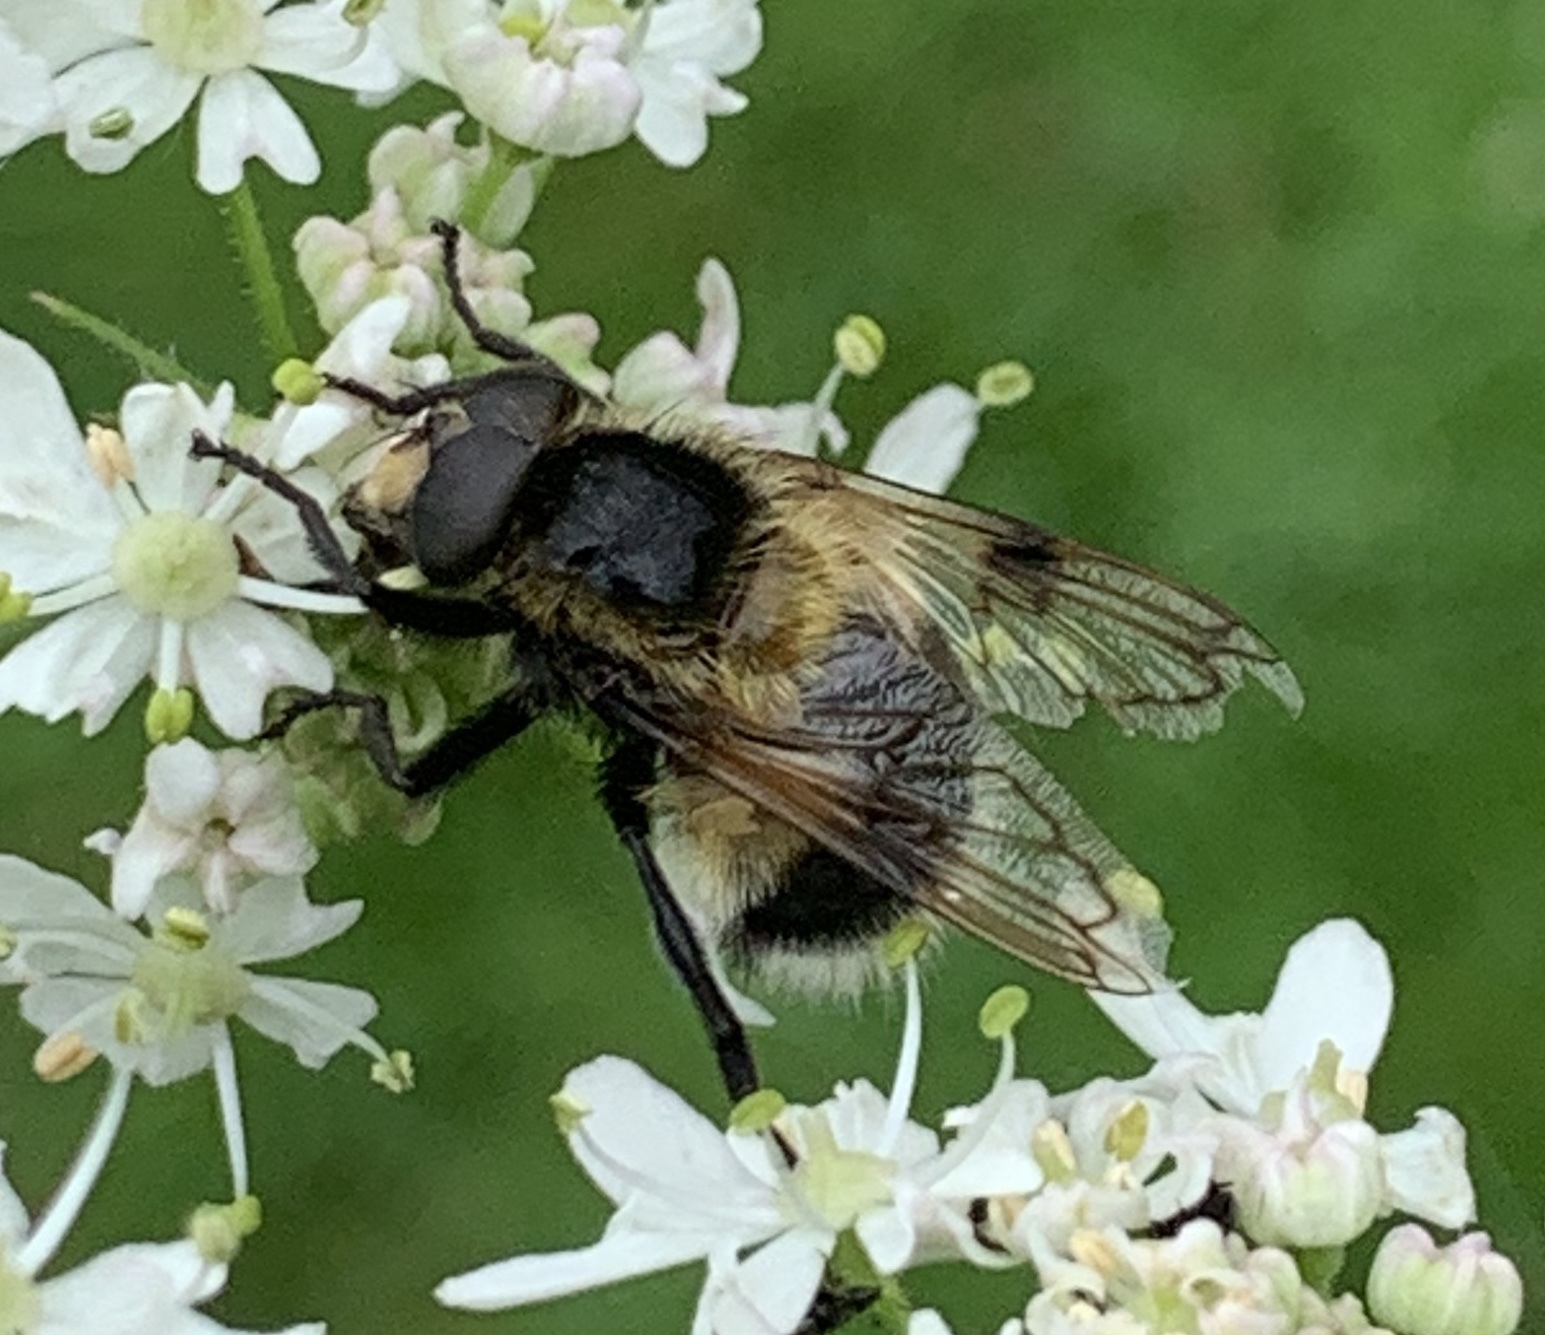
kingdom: Animalia
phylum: Arthropoda
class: Insecta
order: Diptera
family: Syrphidae
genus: Volucella
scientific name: Volucella bombylans
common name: Bumble bee hover fly
